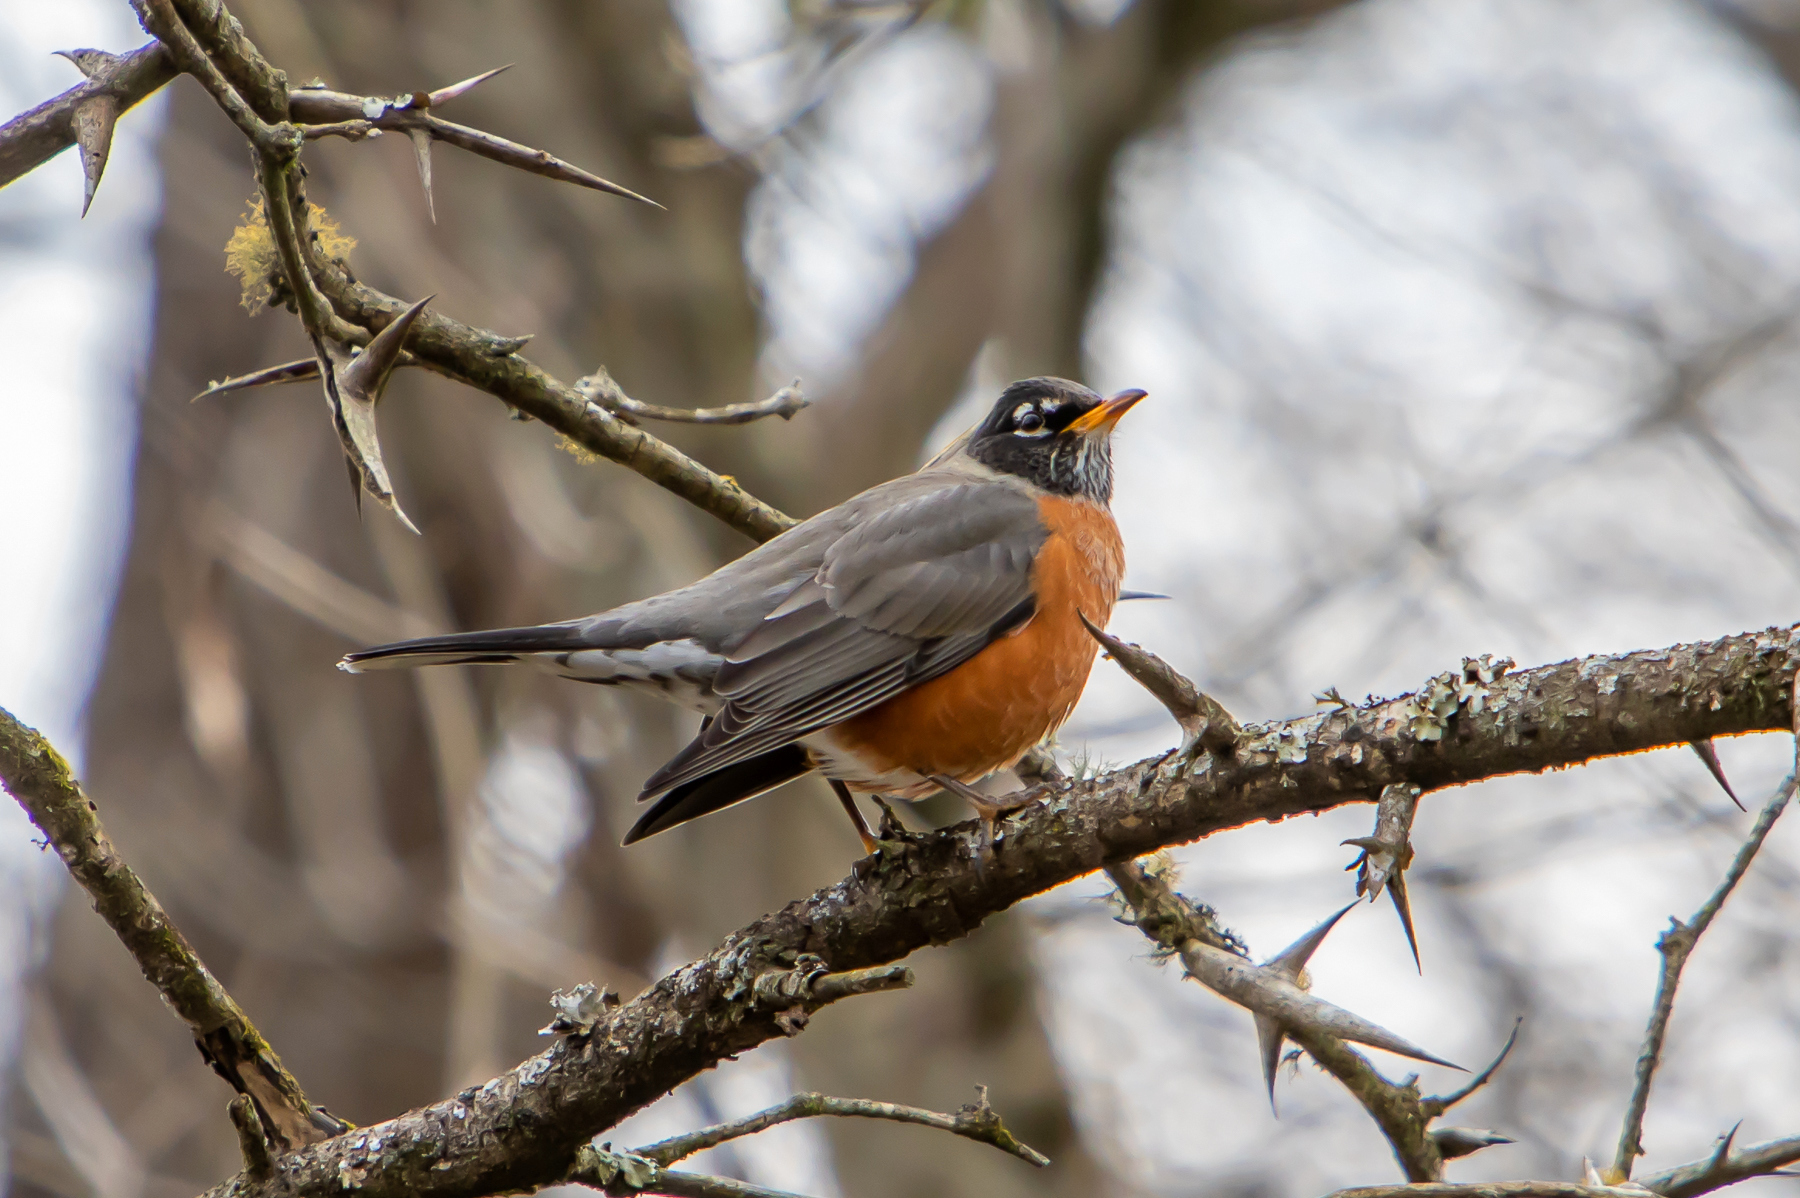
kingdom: Animalia
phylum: Chordata
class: Aves
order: Passeriformes
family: Turdidae
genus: Turdus
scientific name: Turdus migratorius
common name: American robin
